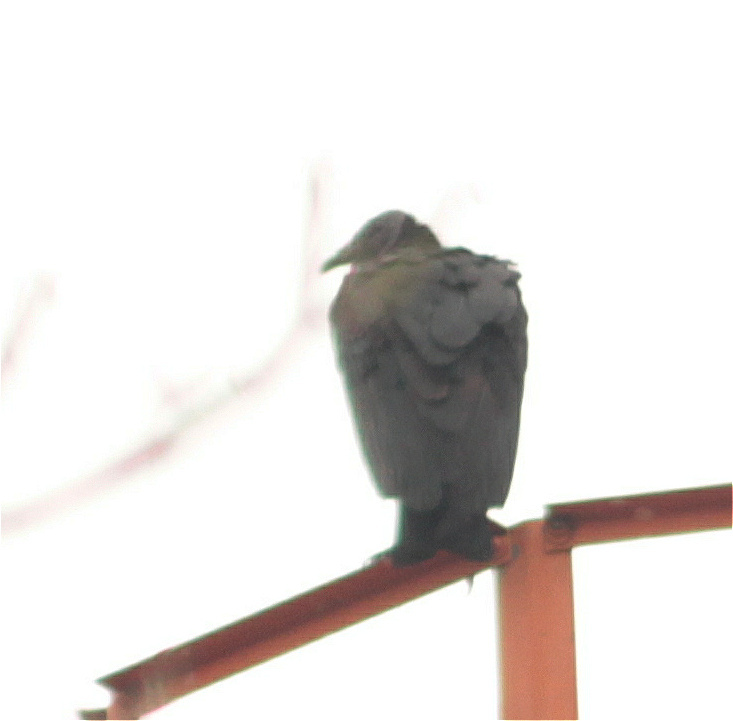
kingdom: Animalia
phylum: Chordata
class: Aves
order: Accipitriformes
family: Cathartidae
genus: Coragyps
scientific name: Coragyps atratus
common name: Black vulture
